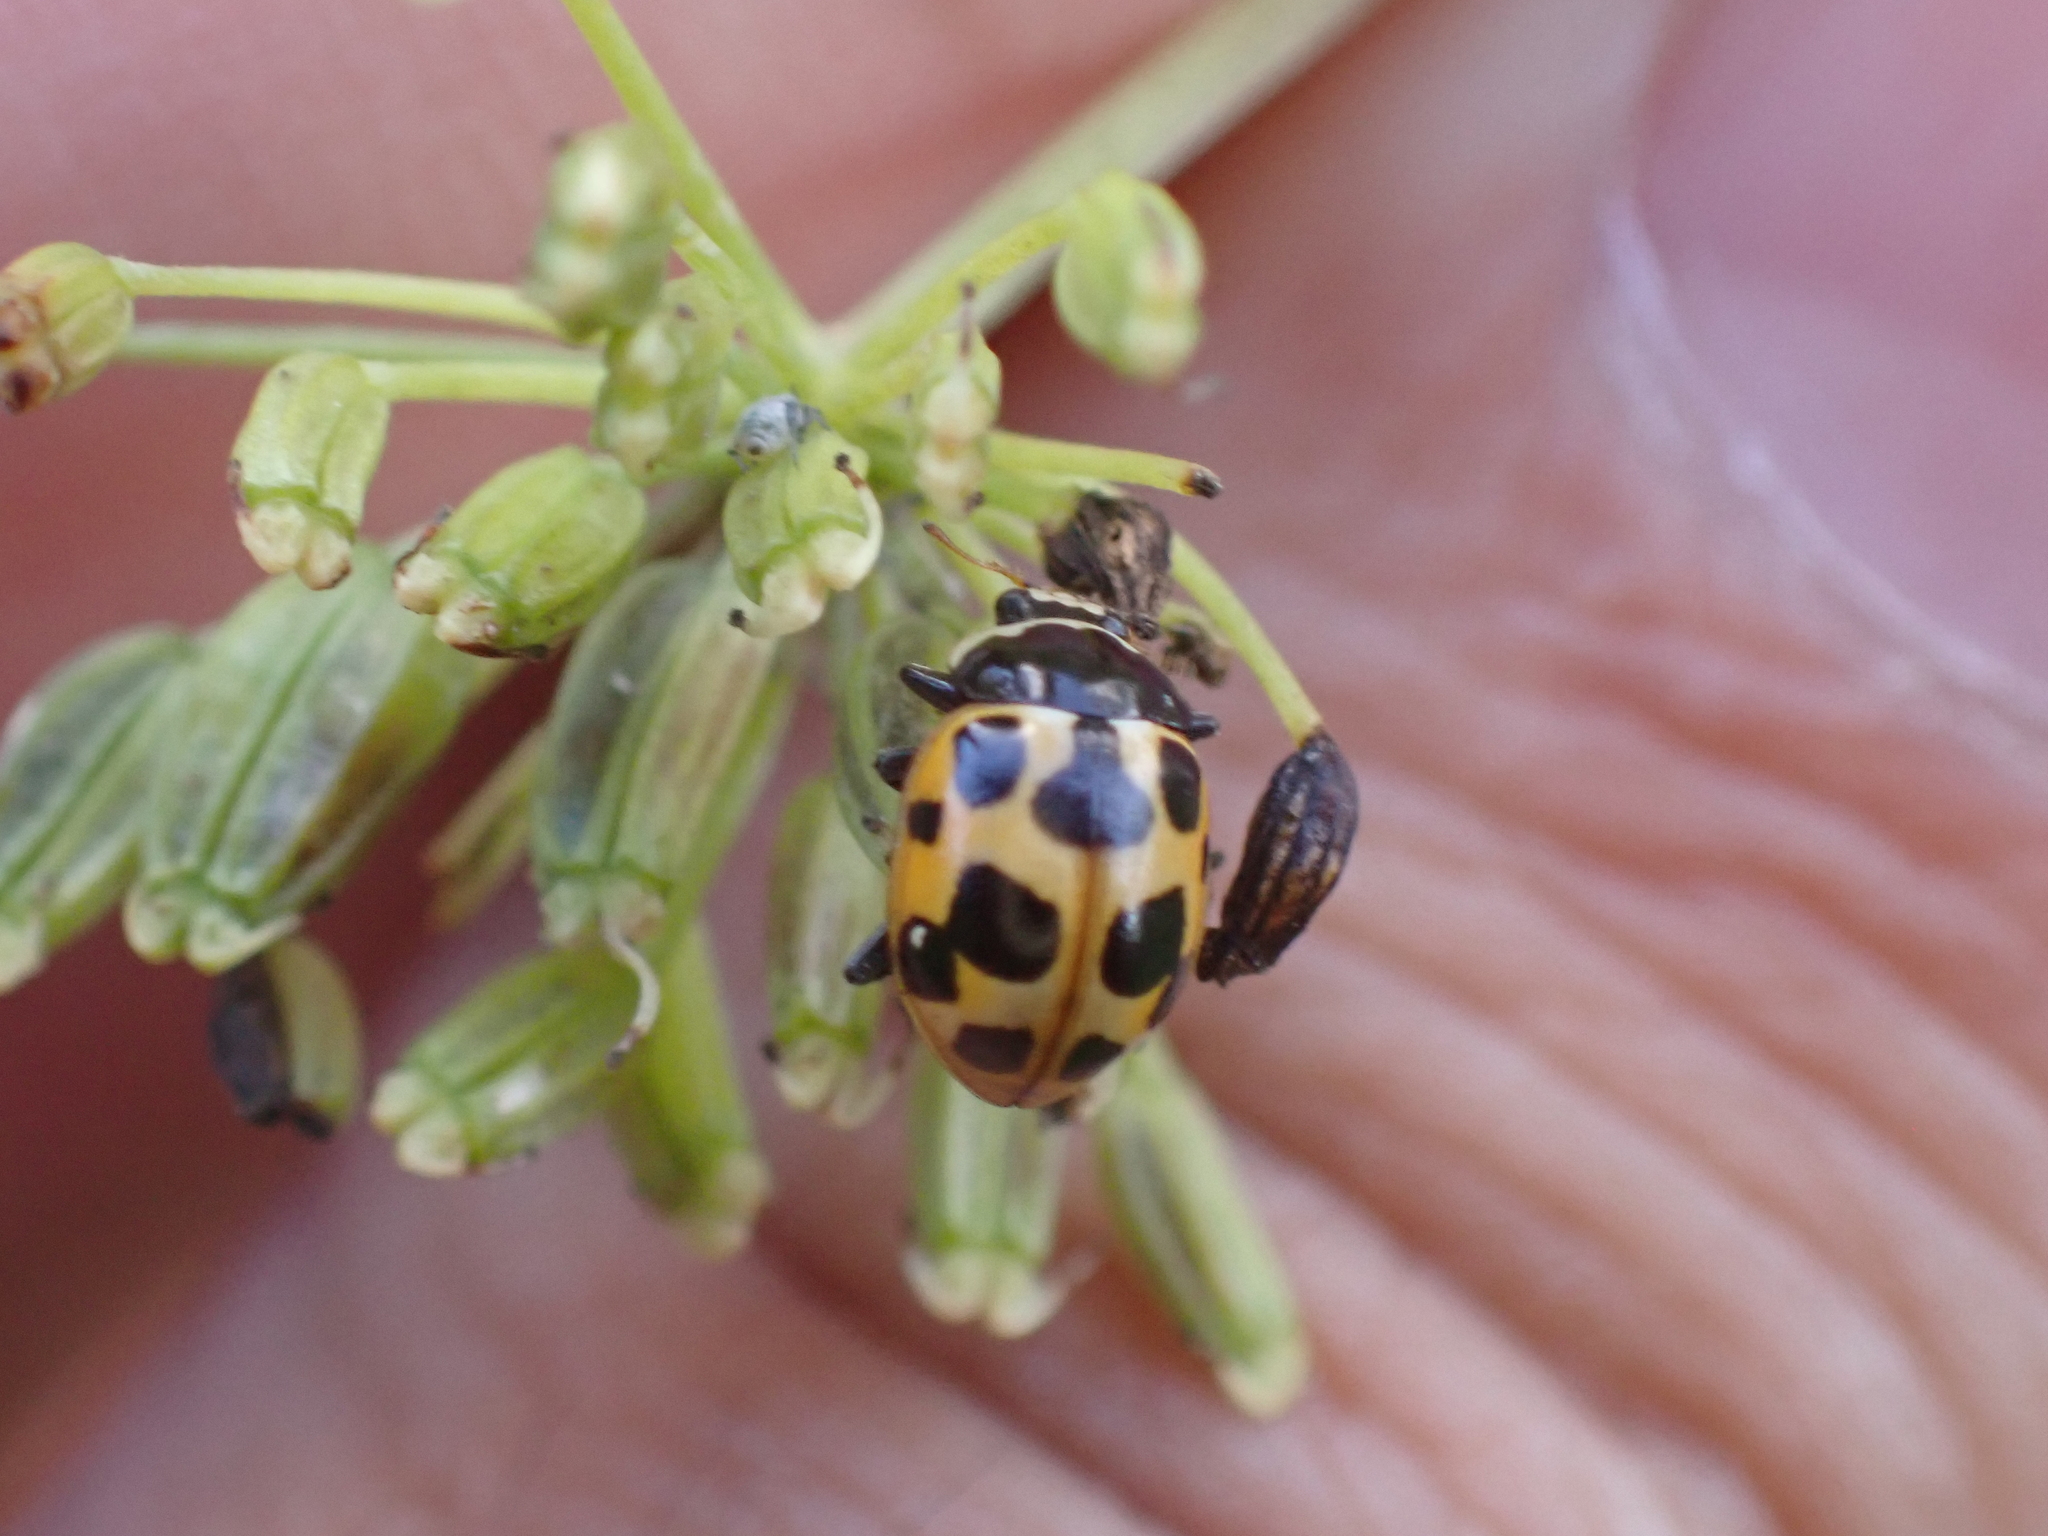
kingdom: Animalia
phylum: Arthropoda
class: Insecta
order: Coleoptera
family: Coccinellidae
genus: Ceratomegilla
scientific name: Ceratomegilla notata
